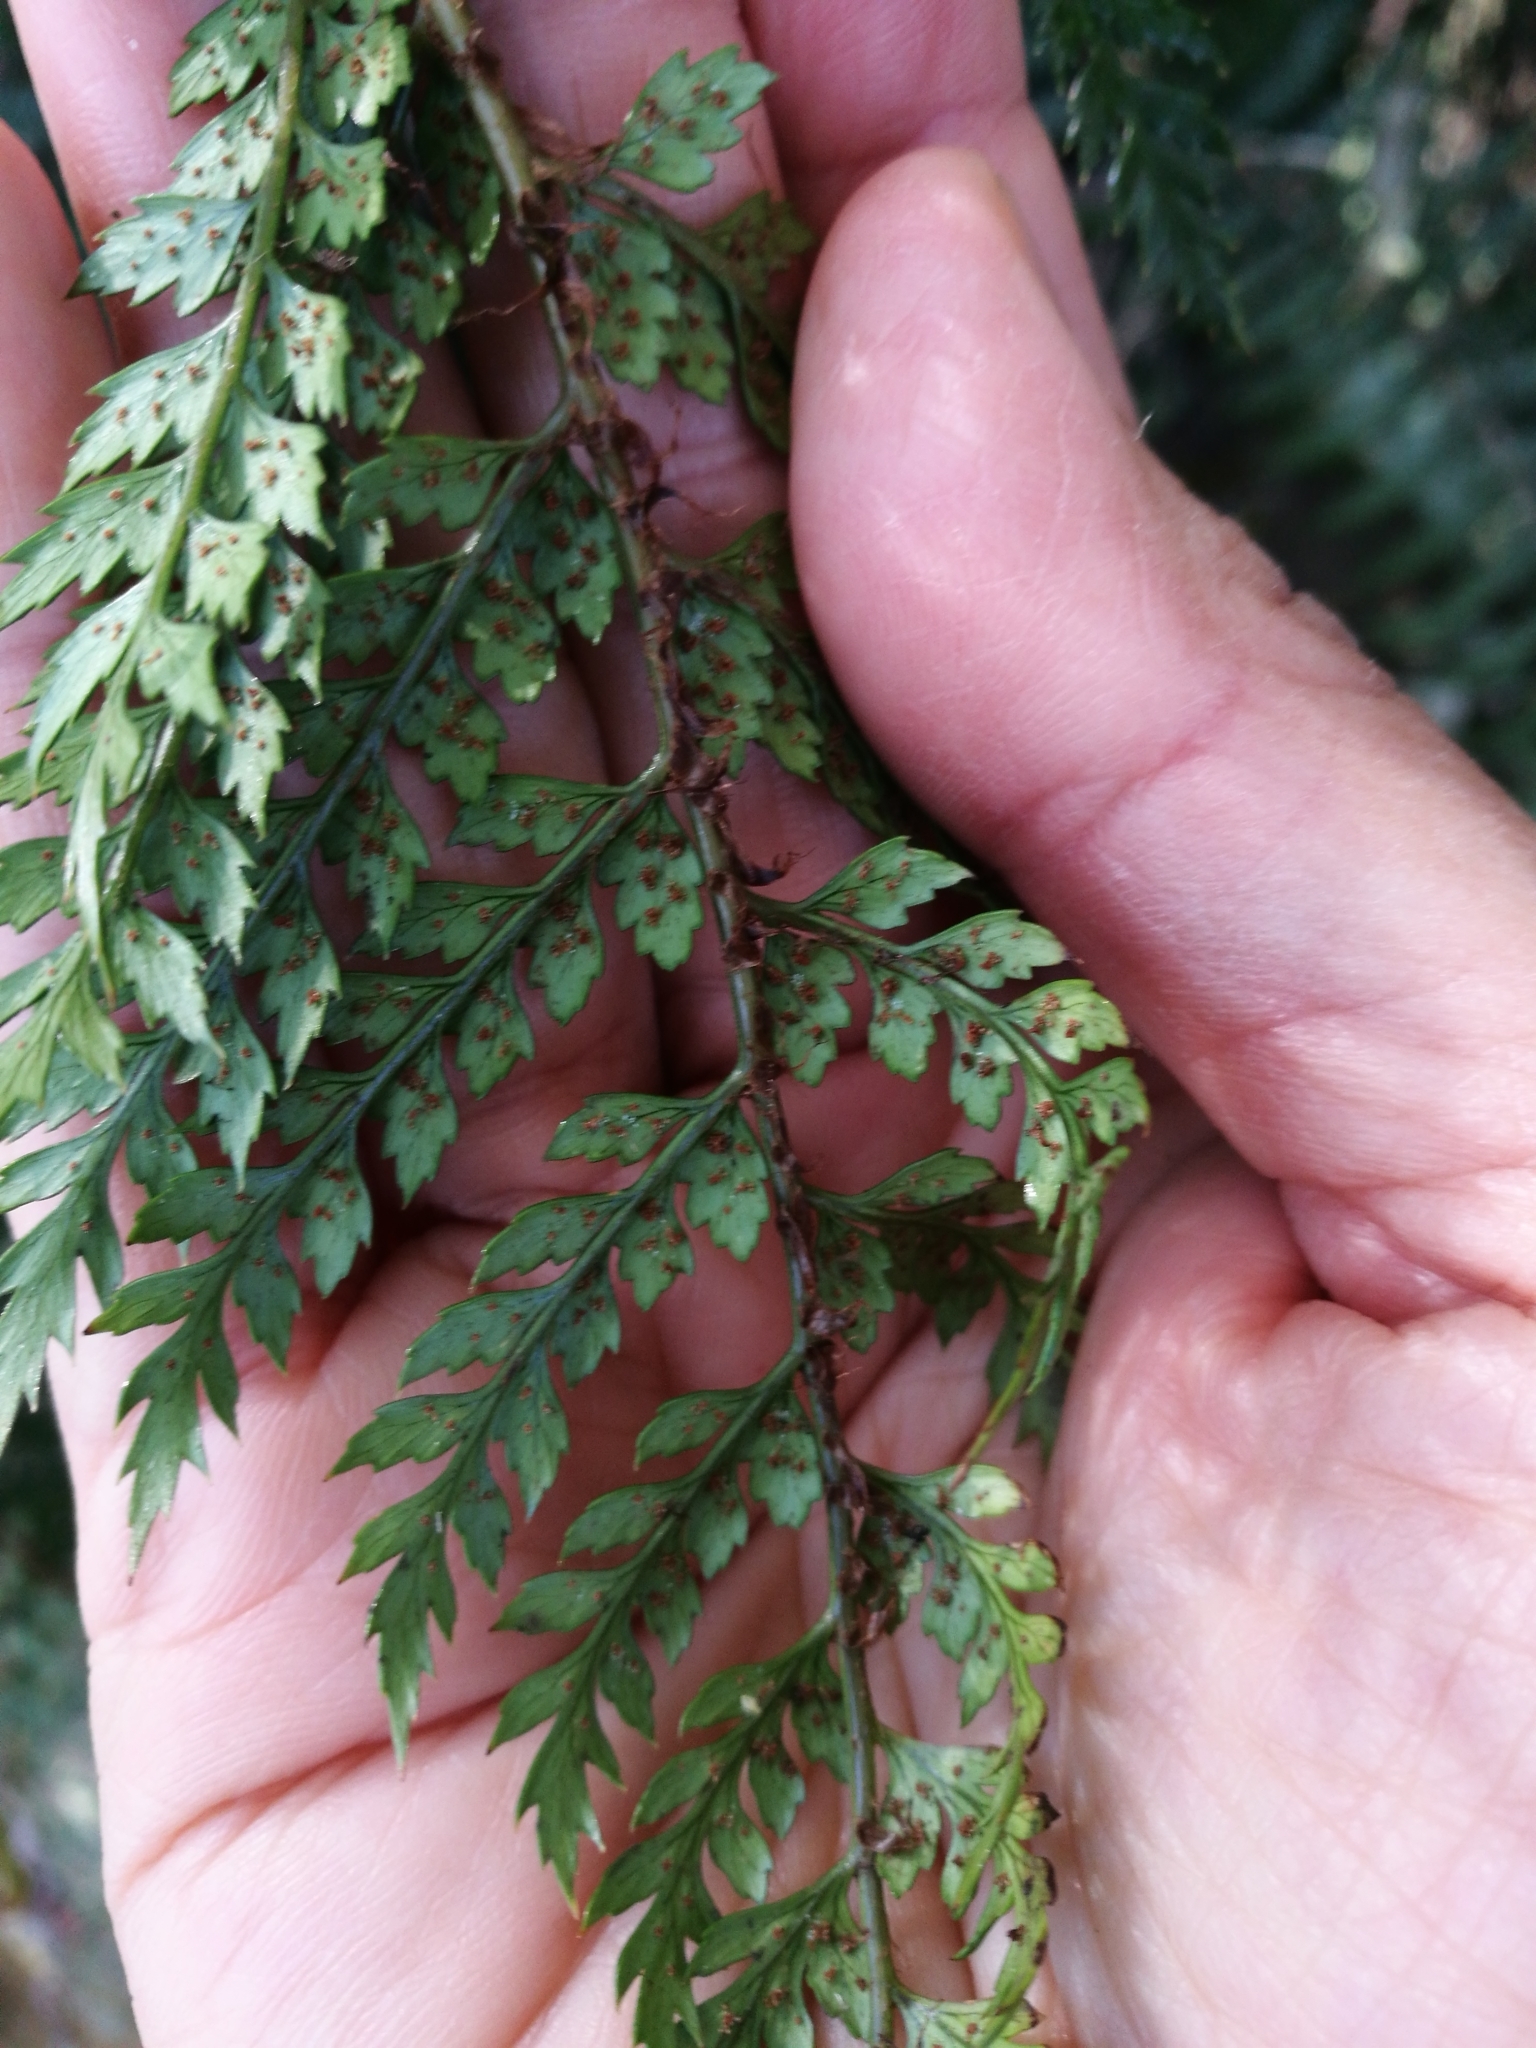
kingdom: Plantae
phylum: Tracheophyta
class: Polypodiopsida
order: Polypodiales
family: Dryopteridaceae
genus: Polystichum
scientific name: Polystichum vestitum
